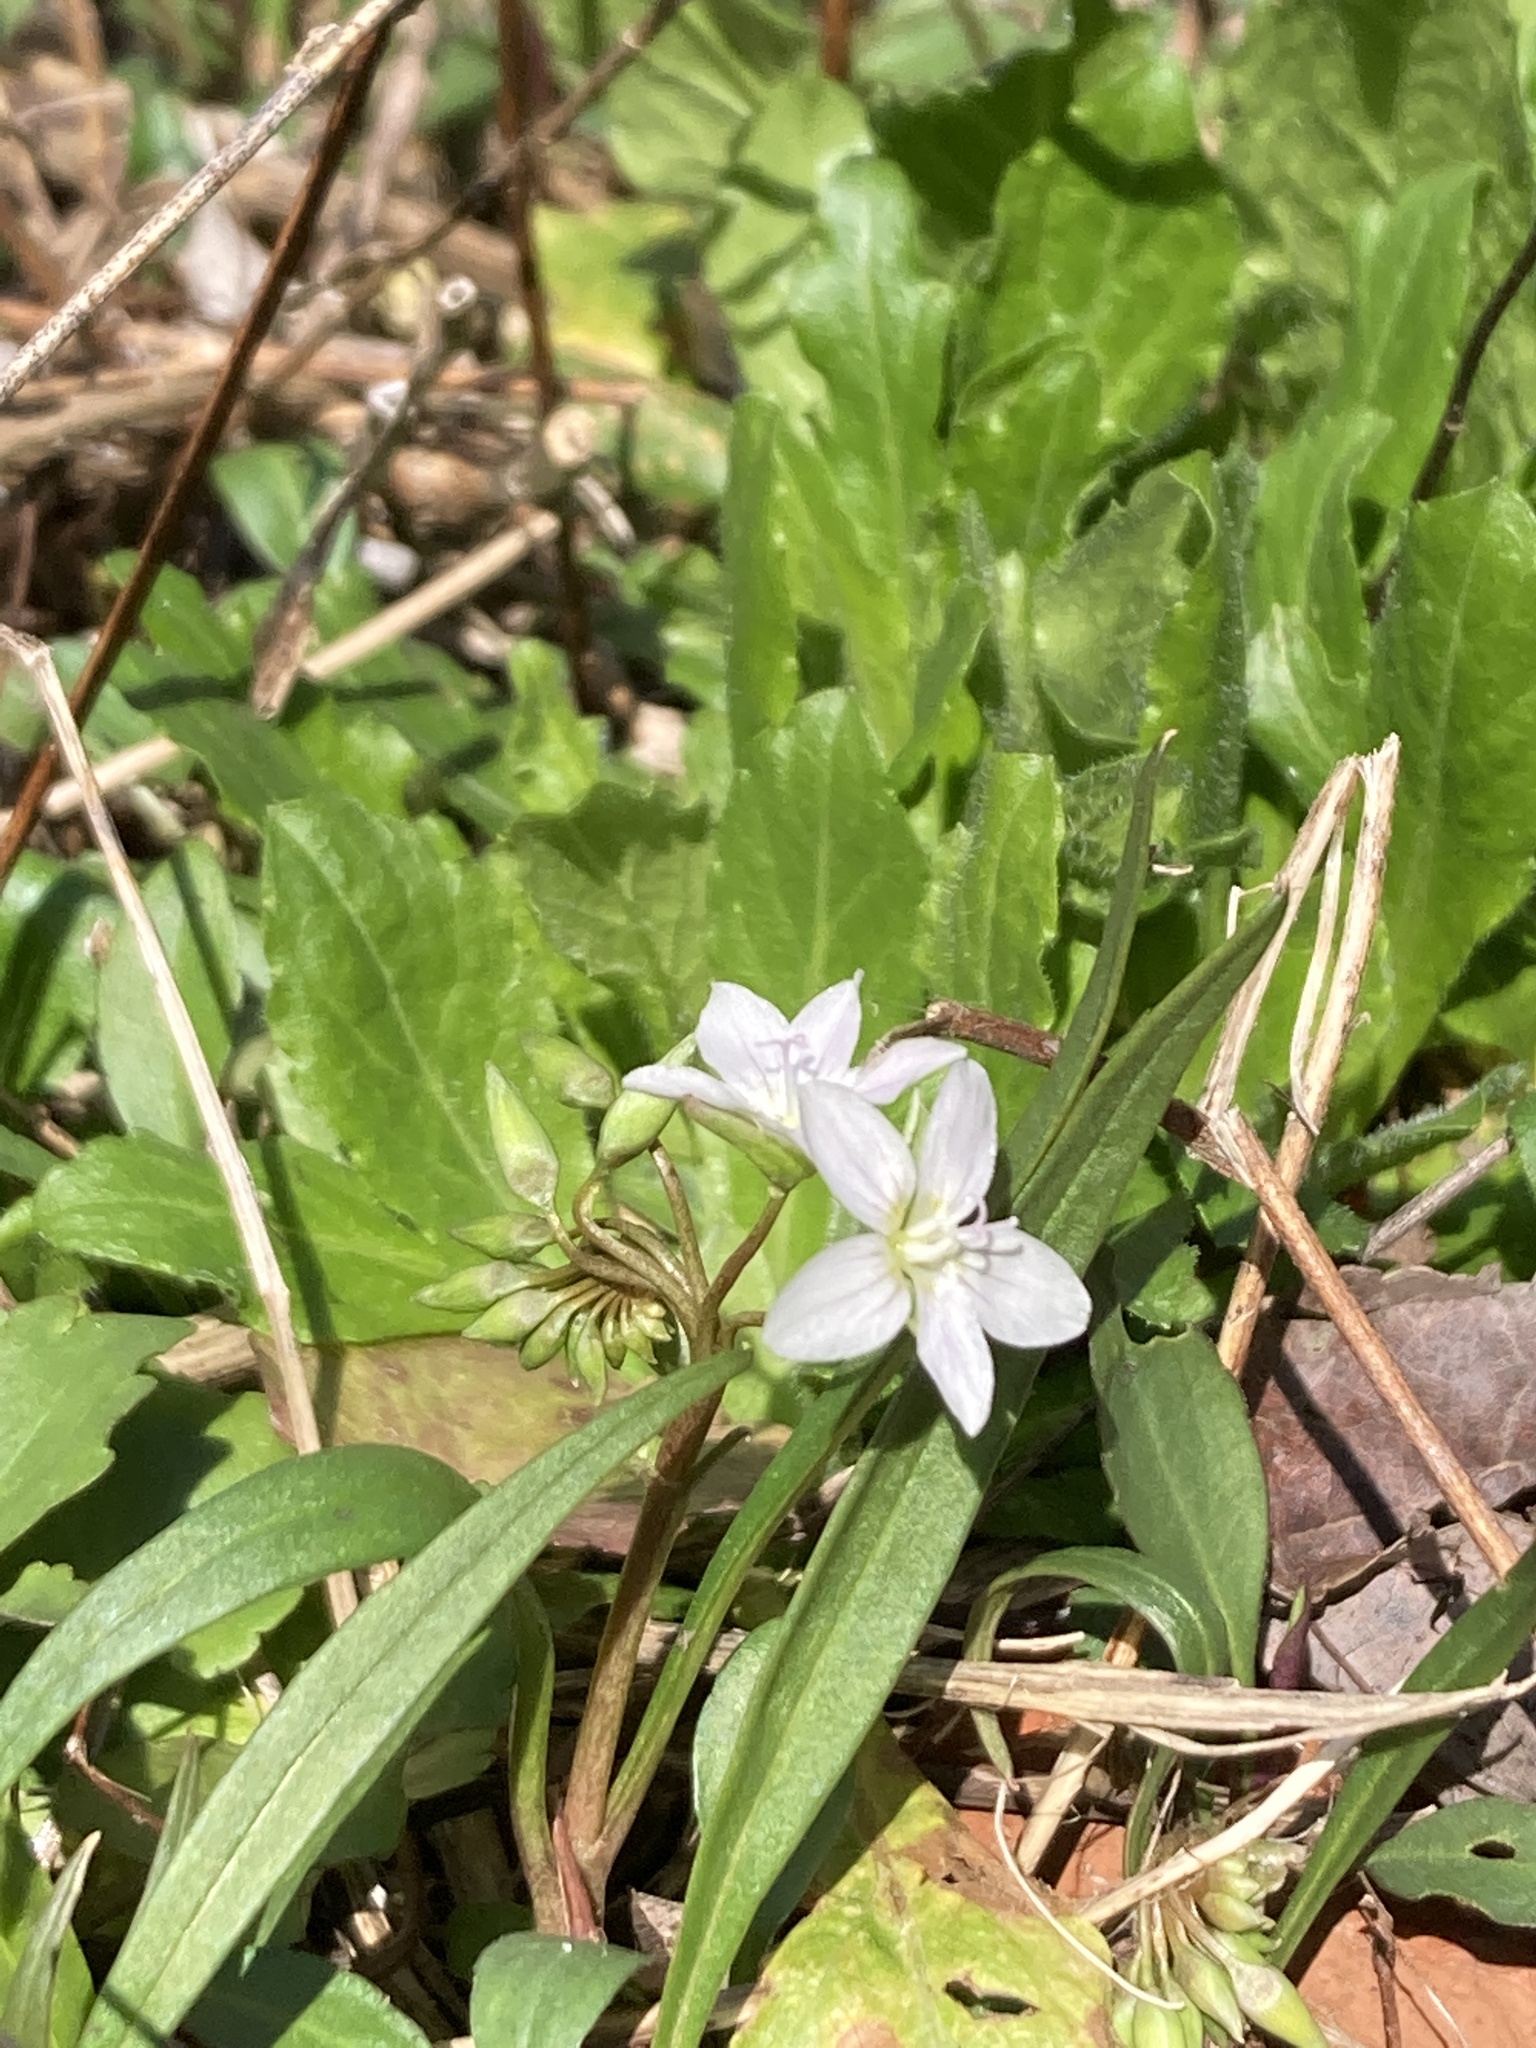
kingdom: Plantae
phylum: Tracheophyta
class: Magnoliopsida
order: Caryophyllales
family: Montiaceae
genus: Claytonia
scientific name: Claytonia virginica
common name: Virginia springbeauty
